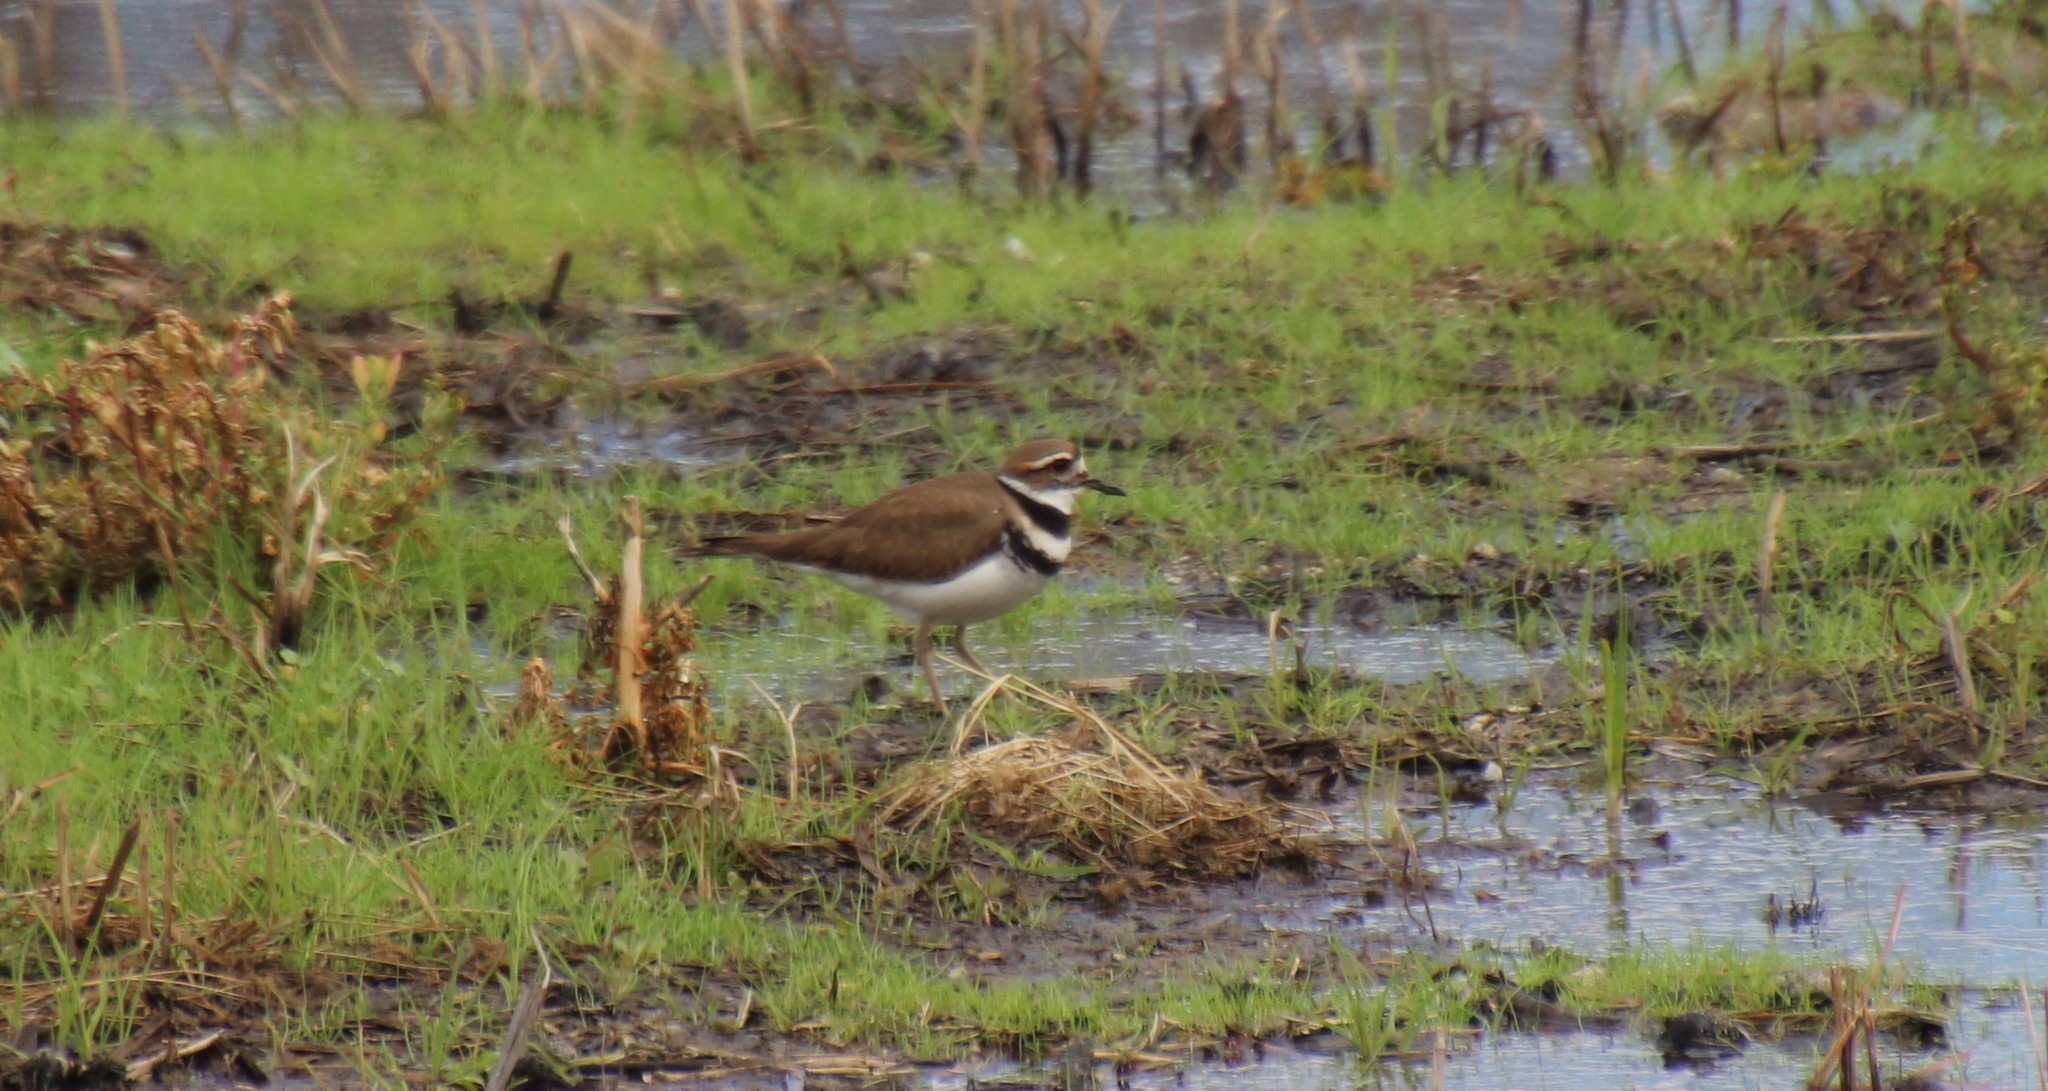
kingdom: Animalia
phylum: Chordata
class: Aves
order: Charadriiformes
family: Charadriidae
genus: Charadrius
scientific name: Charadrius vociferus
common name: Killdeer
